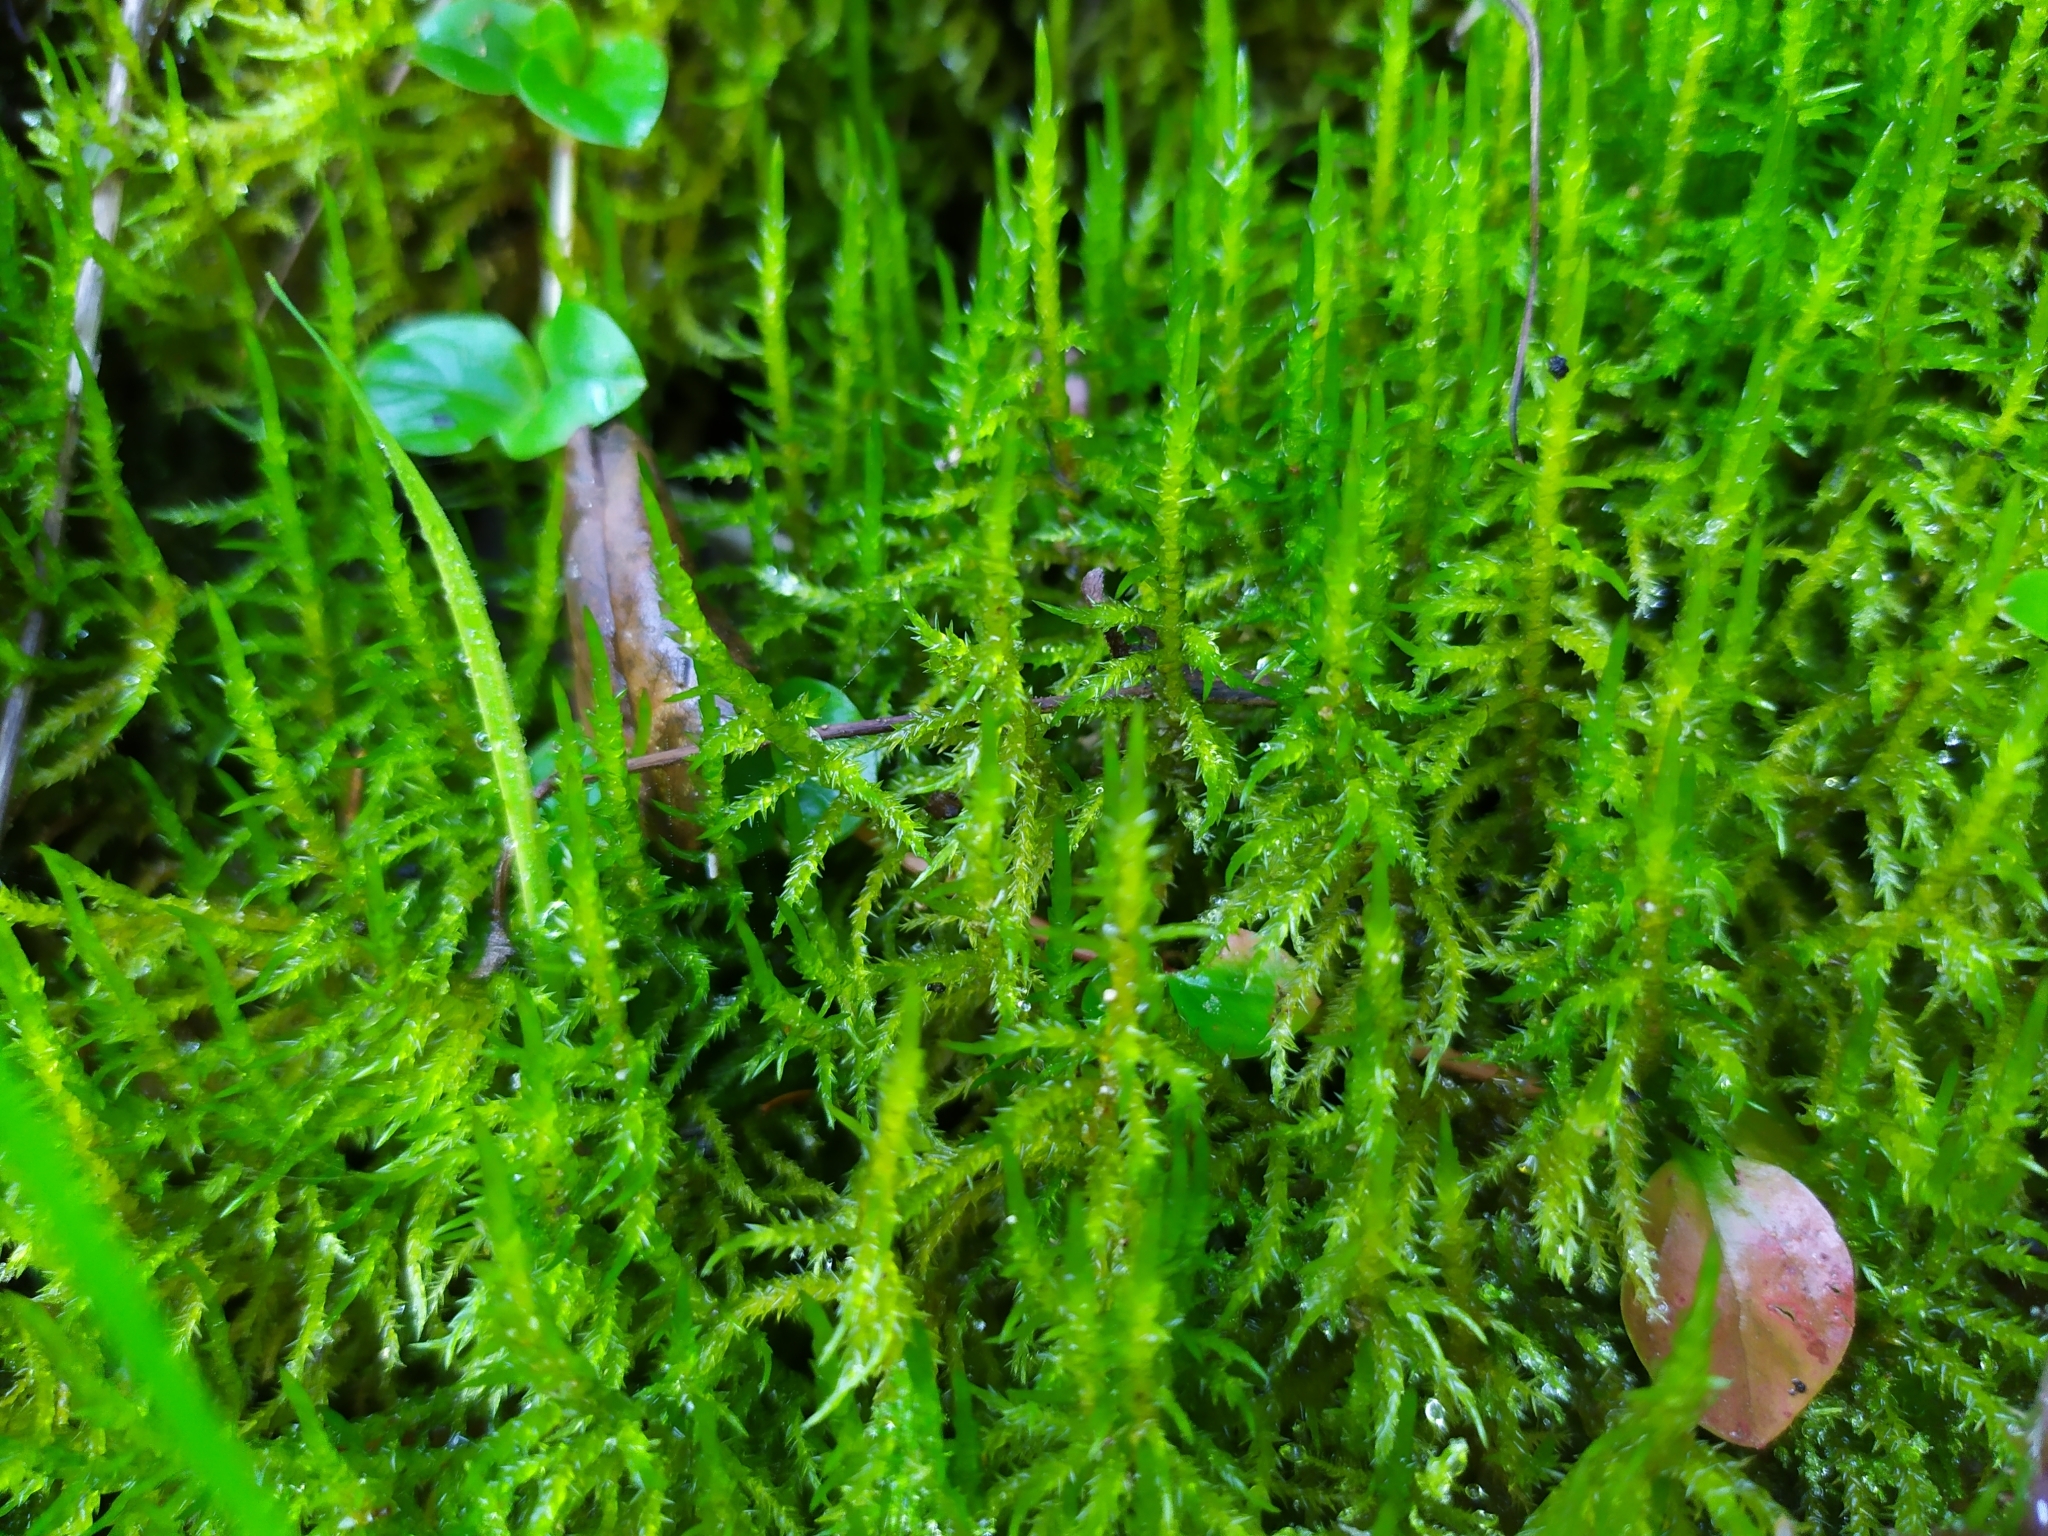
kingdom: Plantae
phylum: Bryophyta
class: Bryopsida
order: Hypnales
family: Pylaisiaceae
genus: Calliergonella
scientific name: Calliergonella cuspidata
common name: Common large wetland moss
